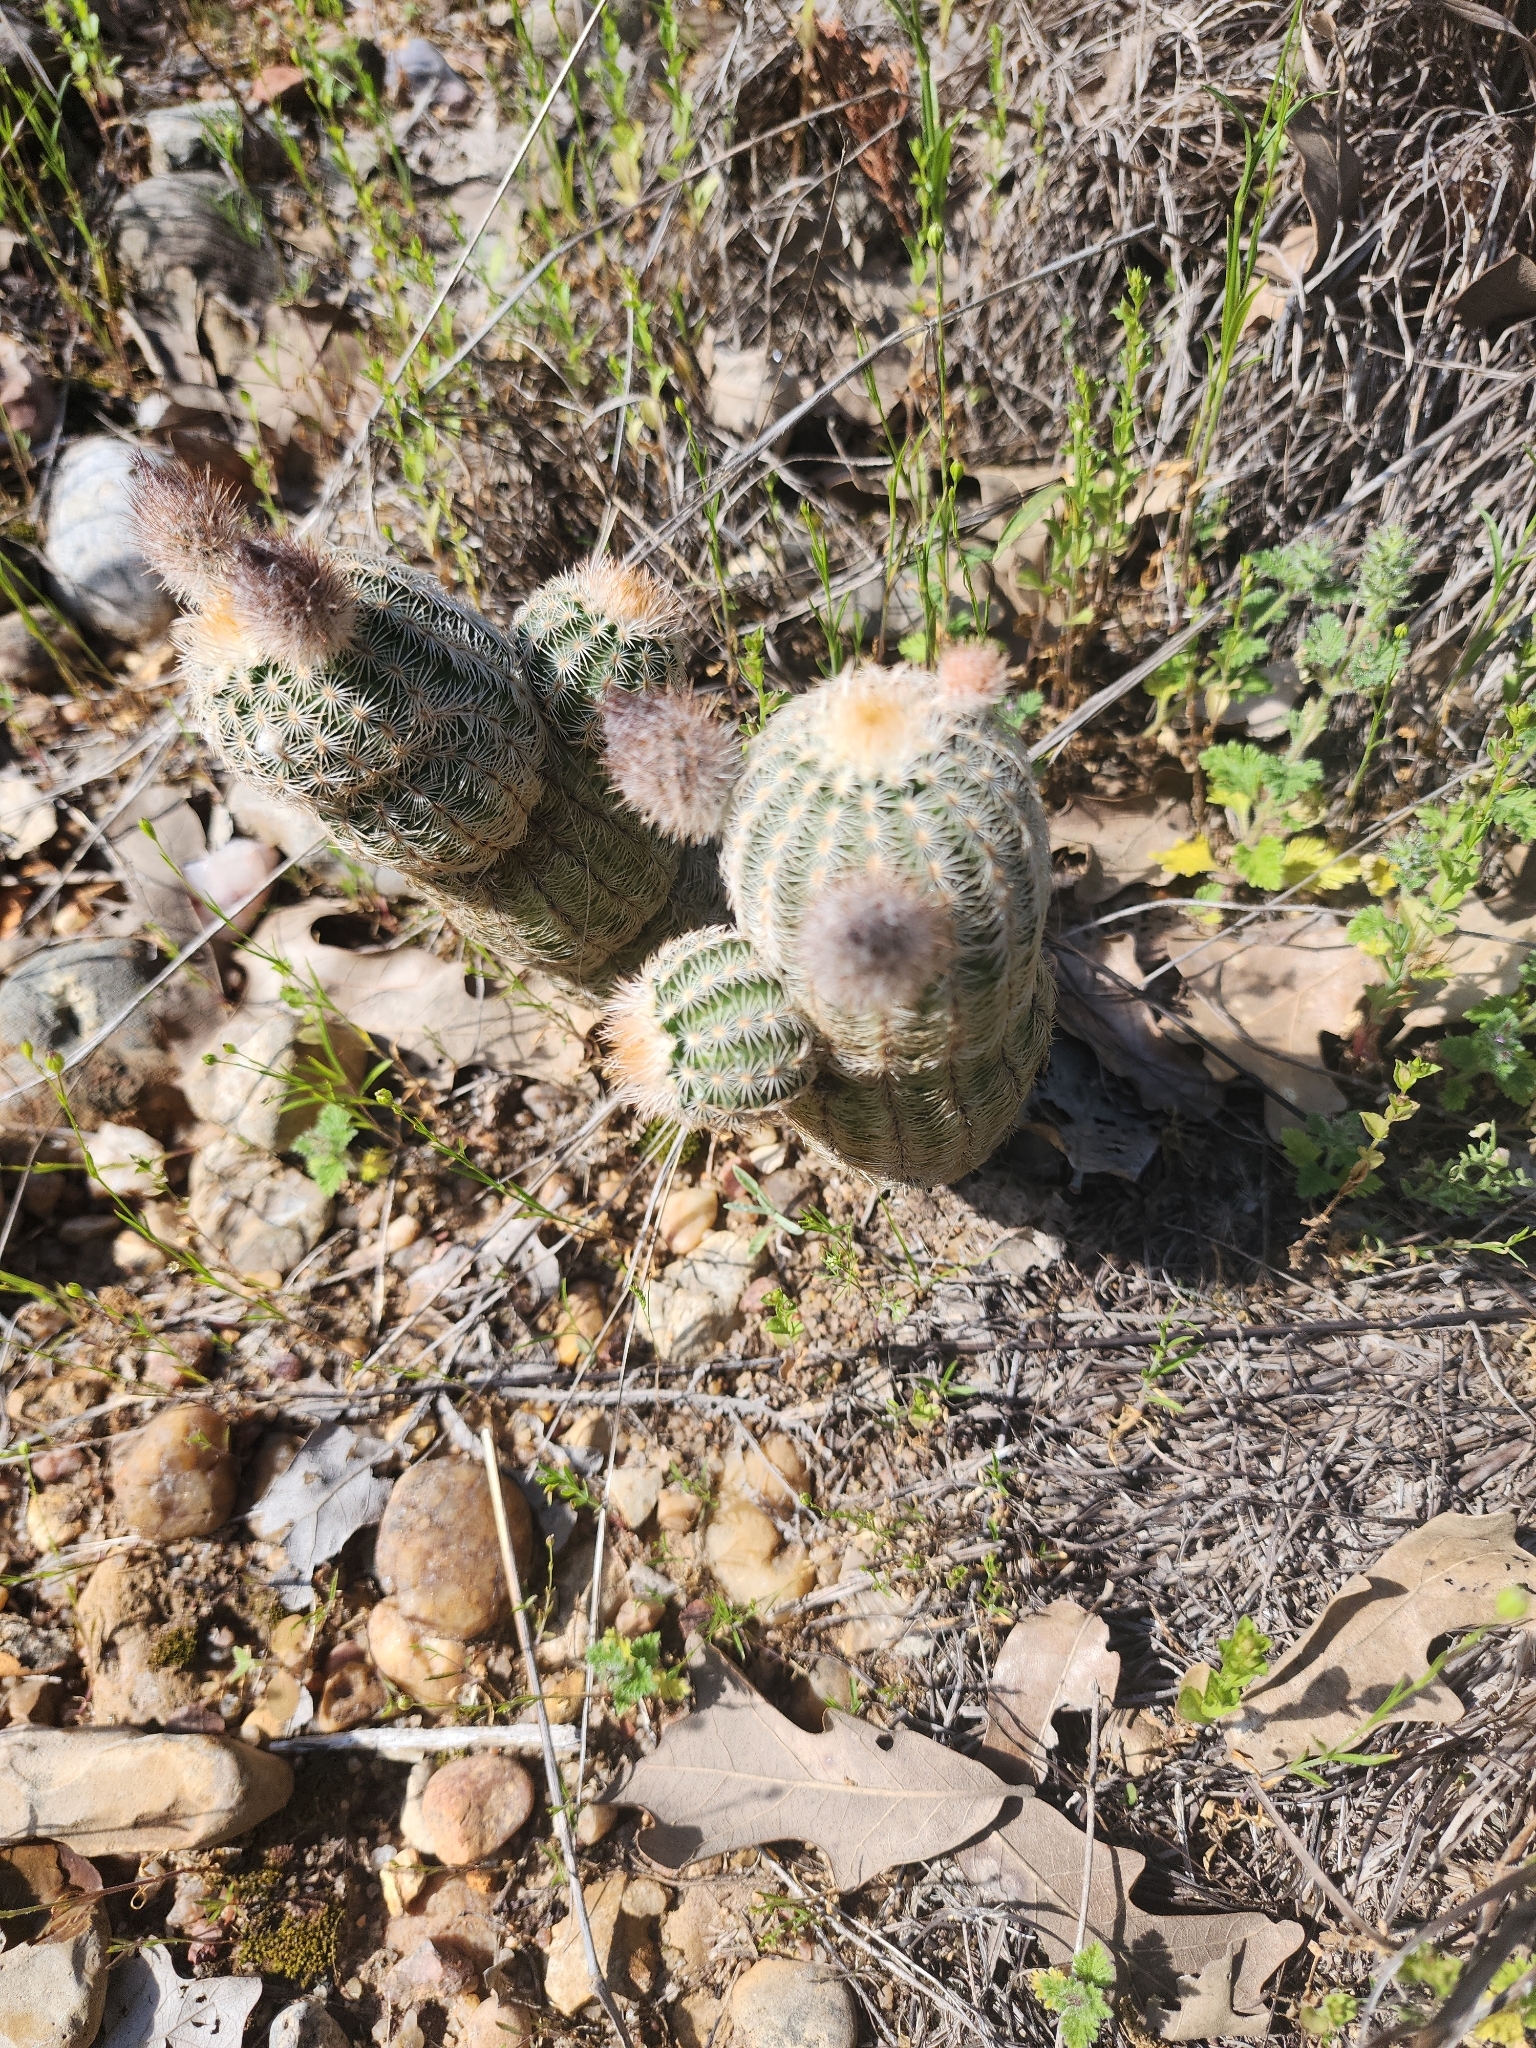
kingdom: Plantae
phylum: Tracheophyta
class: Magnoliopsida
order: Caryophyllales
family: Cactaceae
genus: Echinocereus
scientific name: Echinocereus reichenbachii
